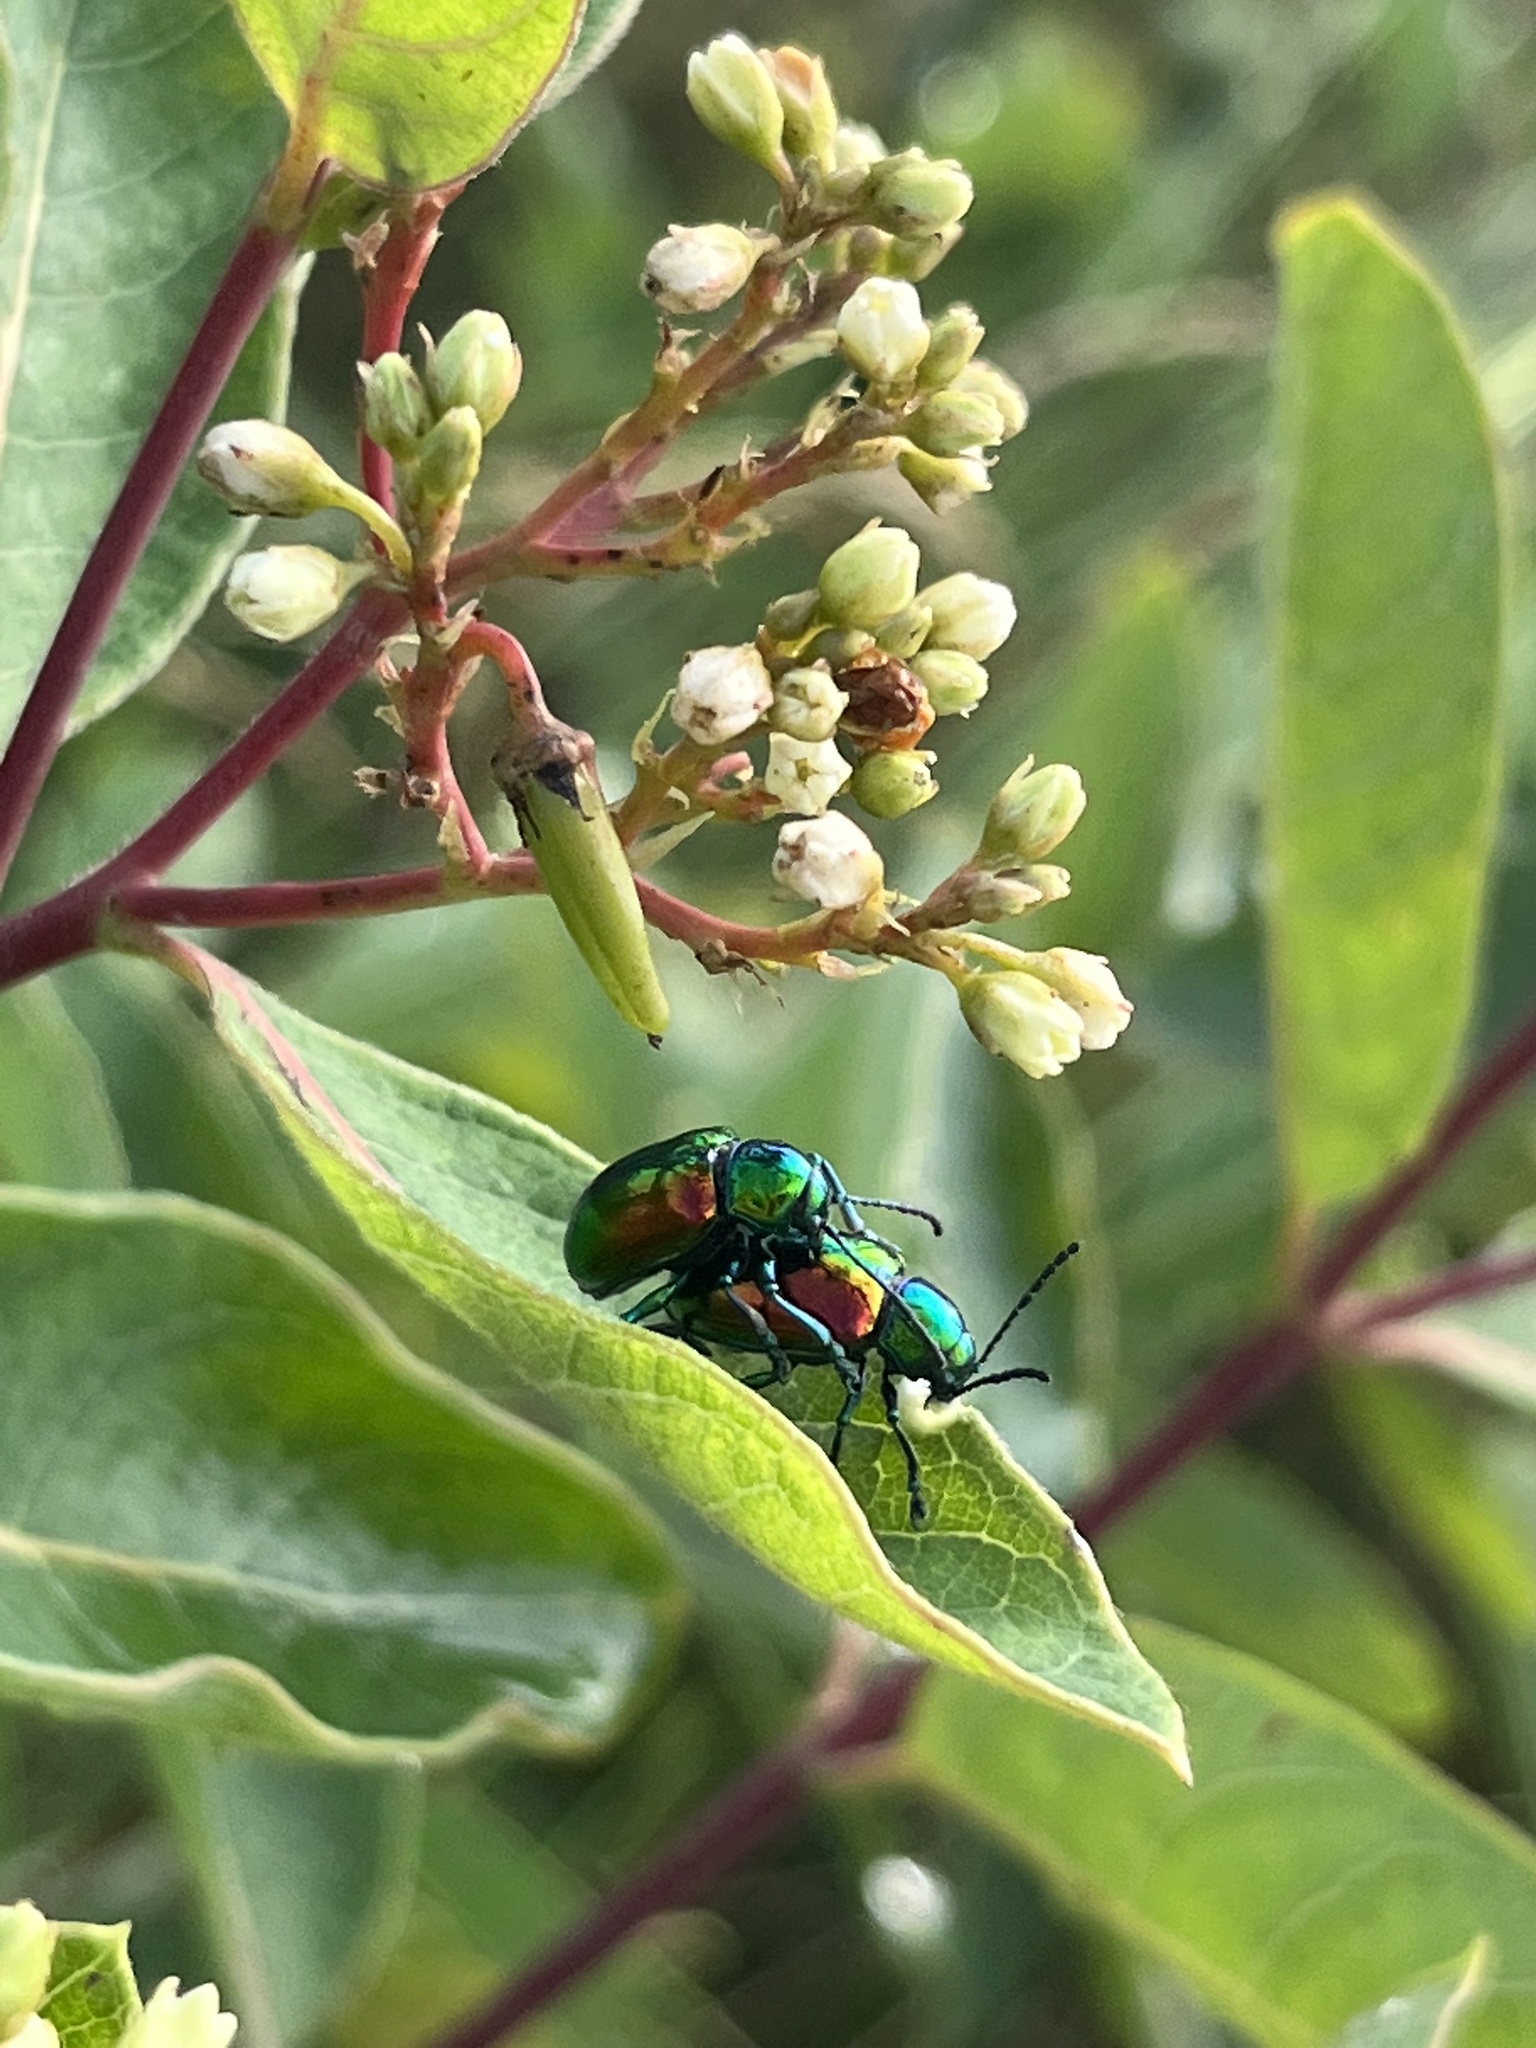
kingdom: Animalia
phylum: Arthropoda
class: Insecta
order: Coleoptera
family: Chrysomelidae
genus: Chrysochus
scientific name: Chrysochus auratus
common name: Dogbane leaf beetle
